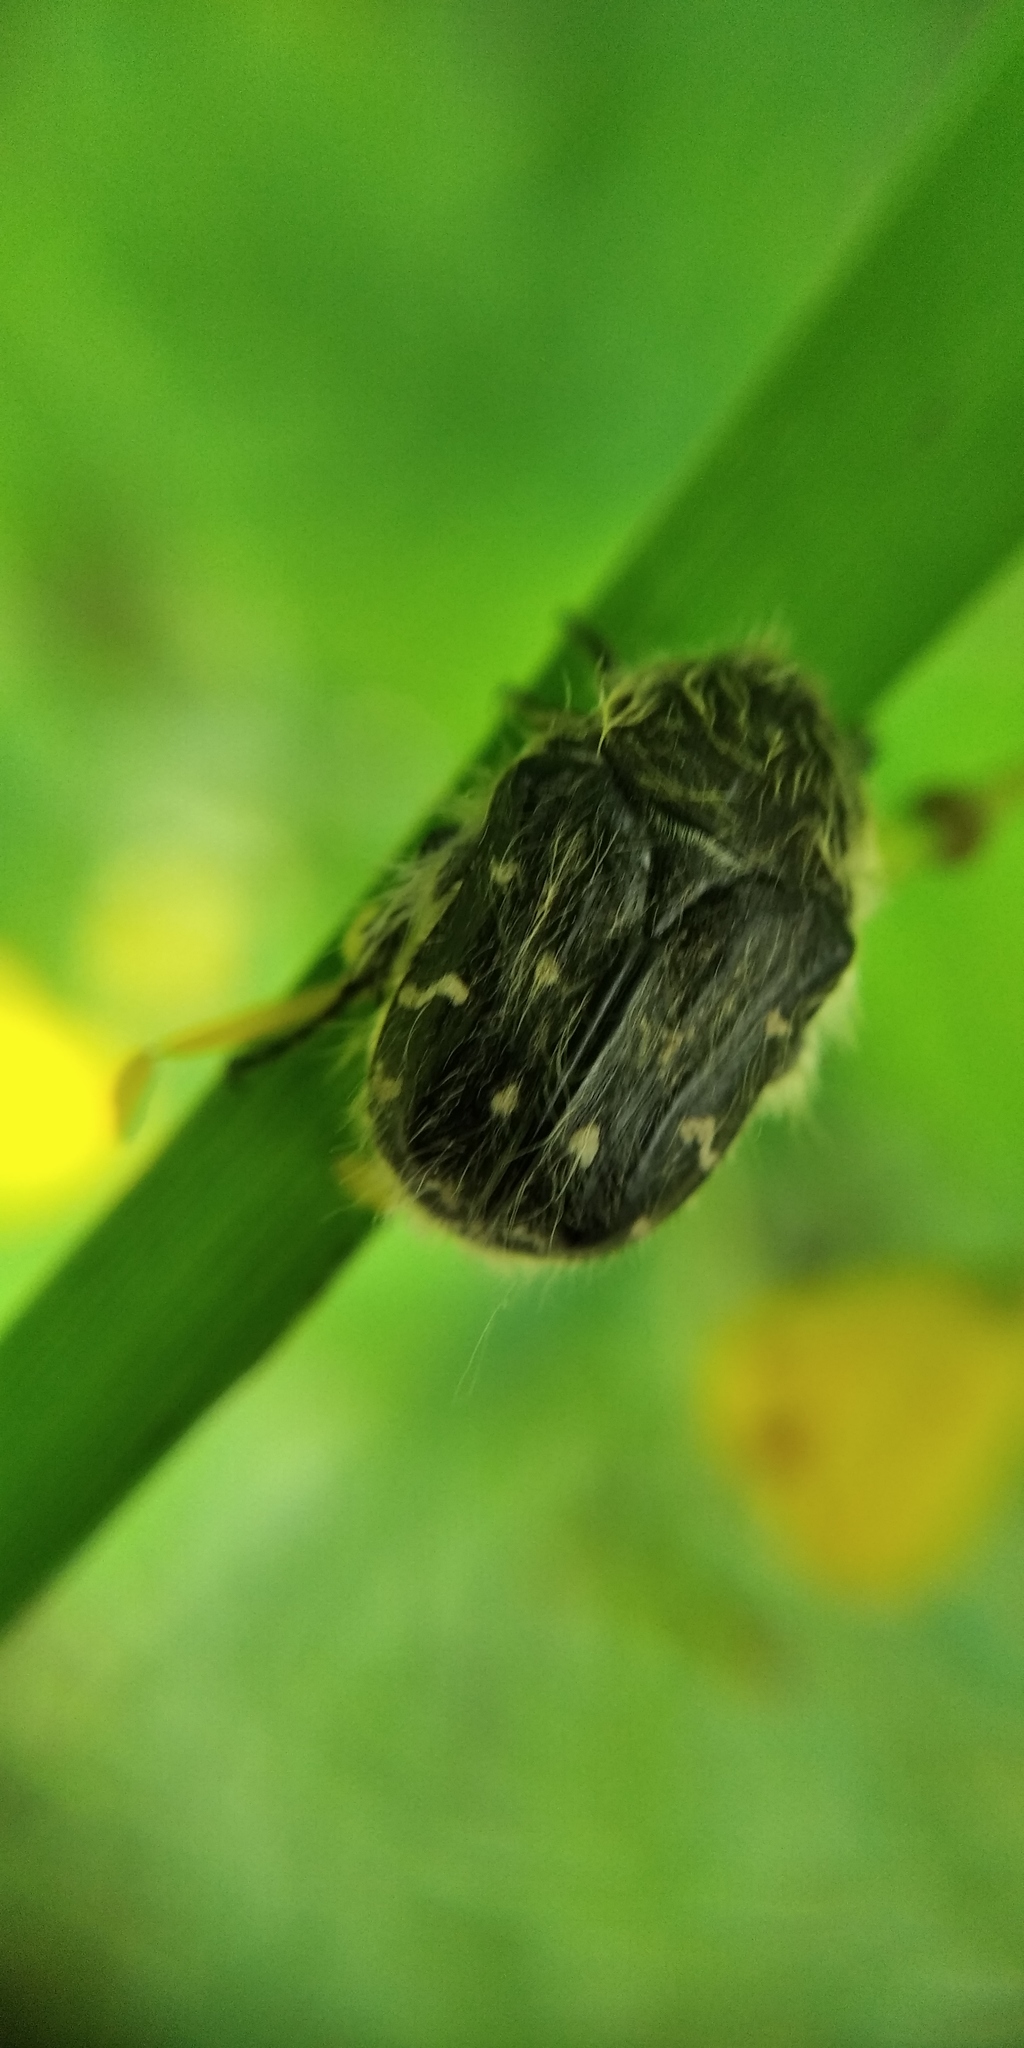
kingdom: Animalia
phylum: Arthropoda
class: Insecta
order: Coleoptera
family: Scarabaeidae
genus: Tropinota
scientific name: Tropinota hirta
